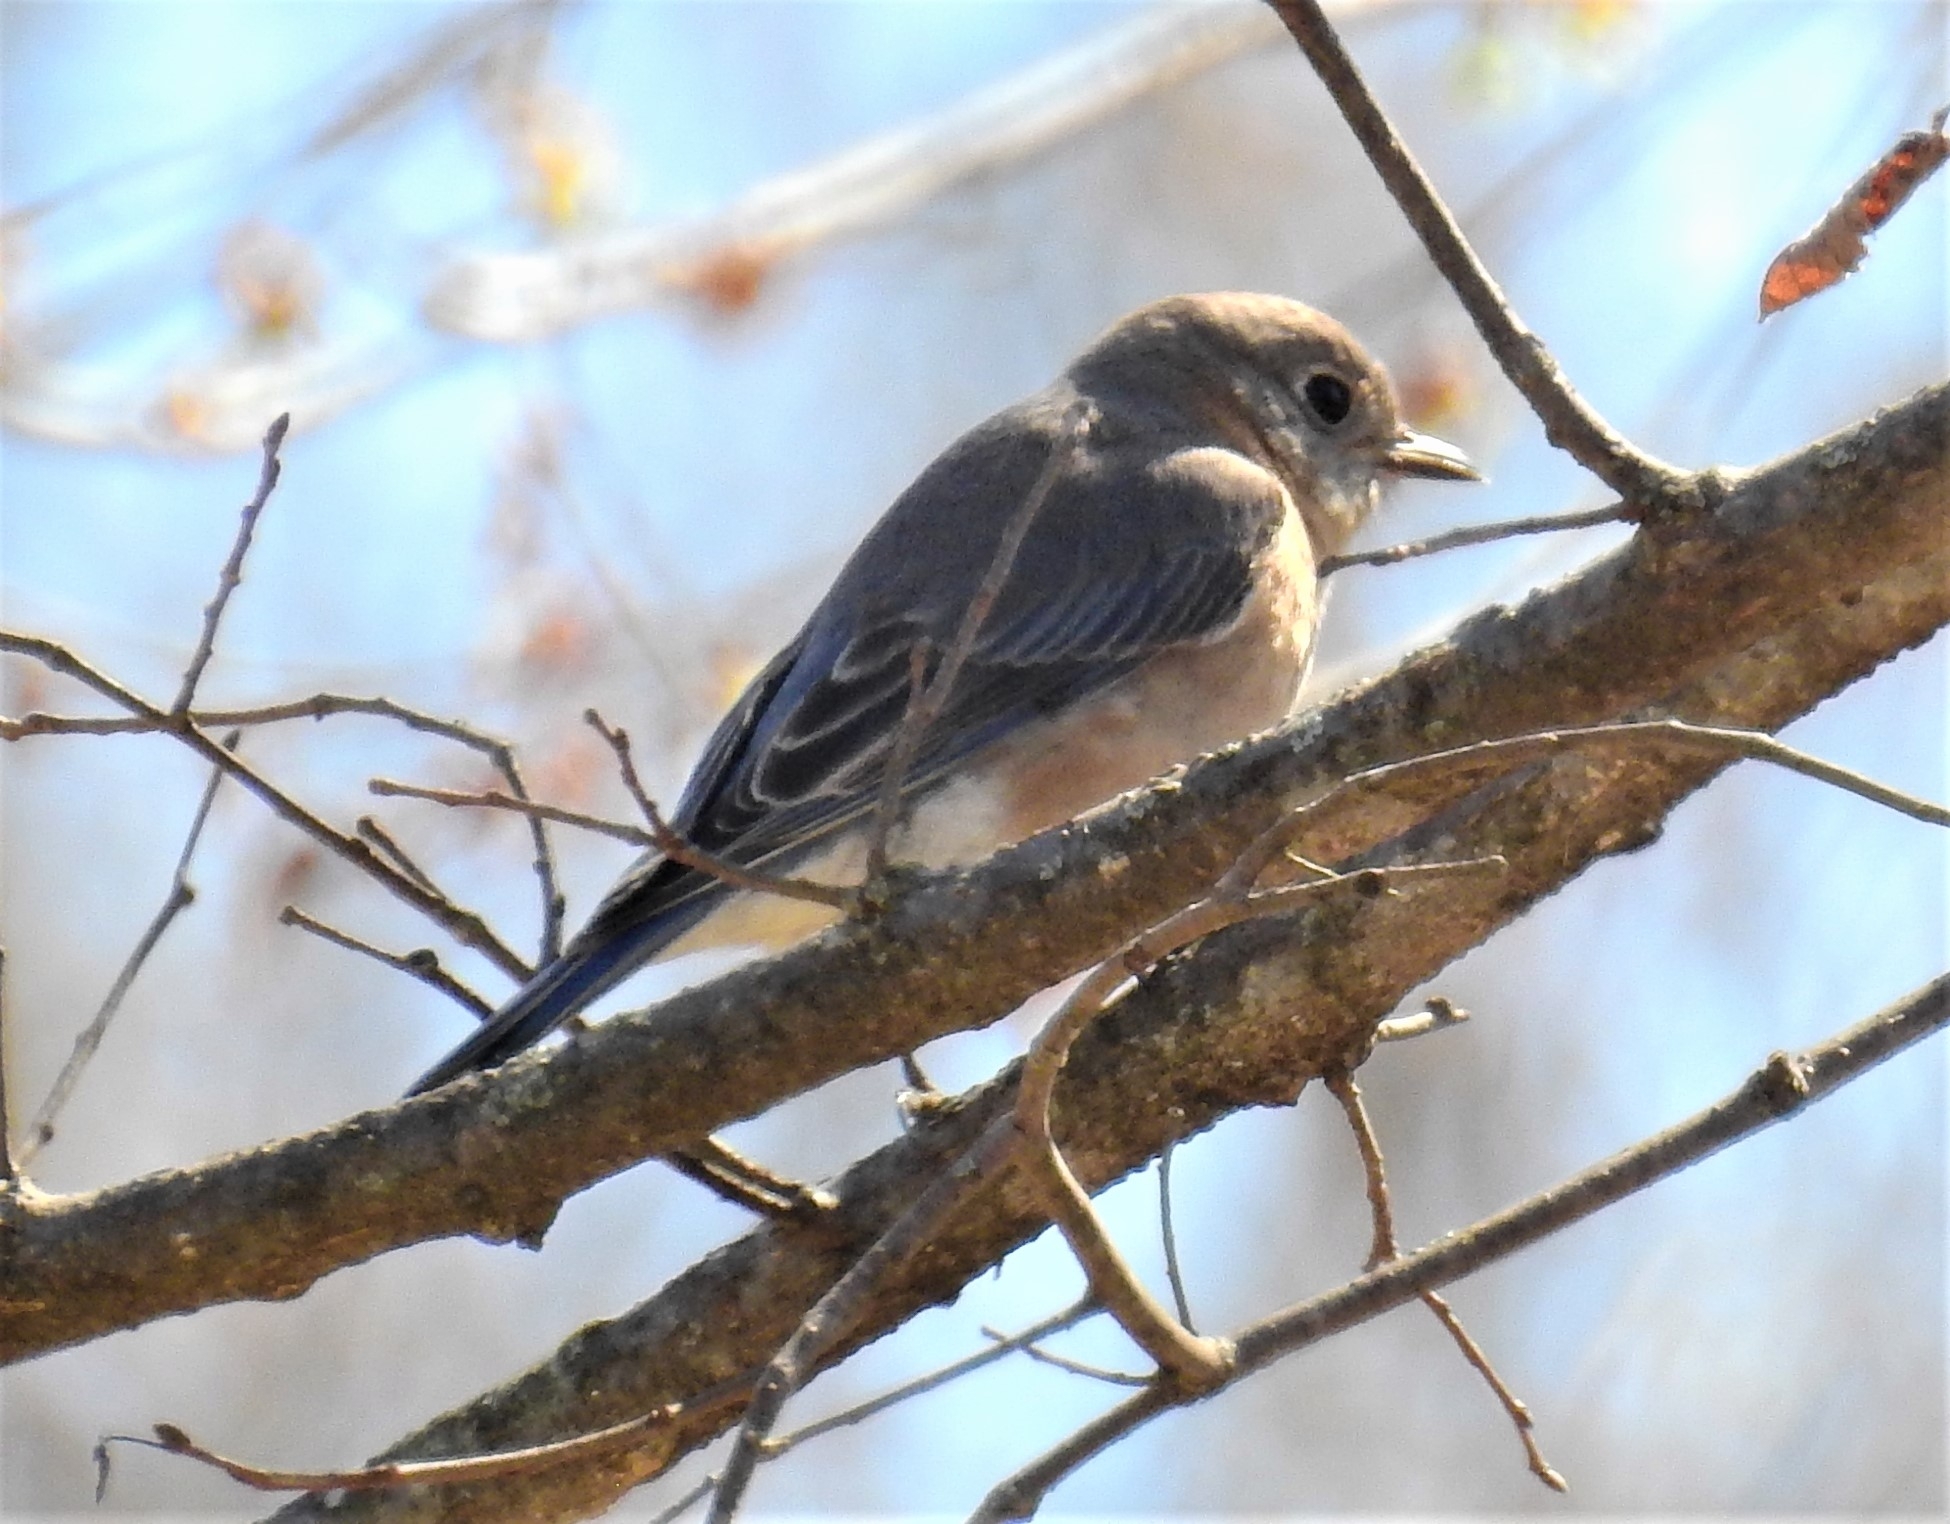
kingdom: Animalia
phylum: Chordata
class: Aves
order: Passeriformes
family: Turdidae
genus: Sialia
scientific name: Sialia sialis
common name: Eastern bluebird
